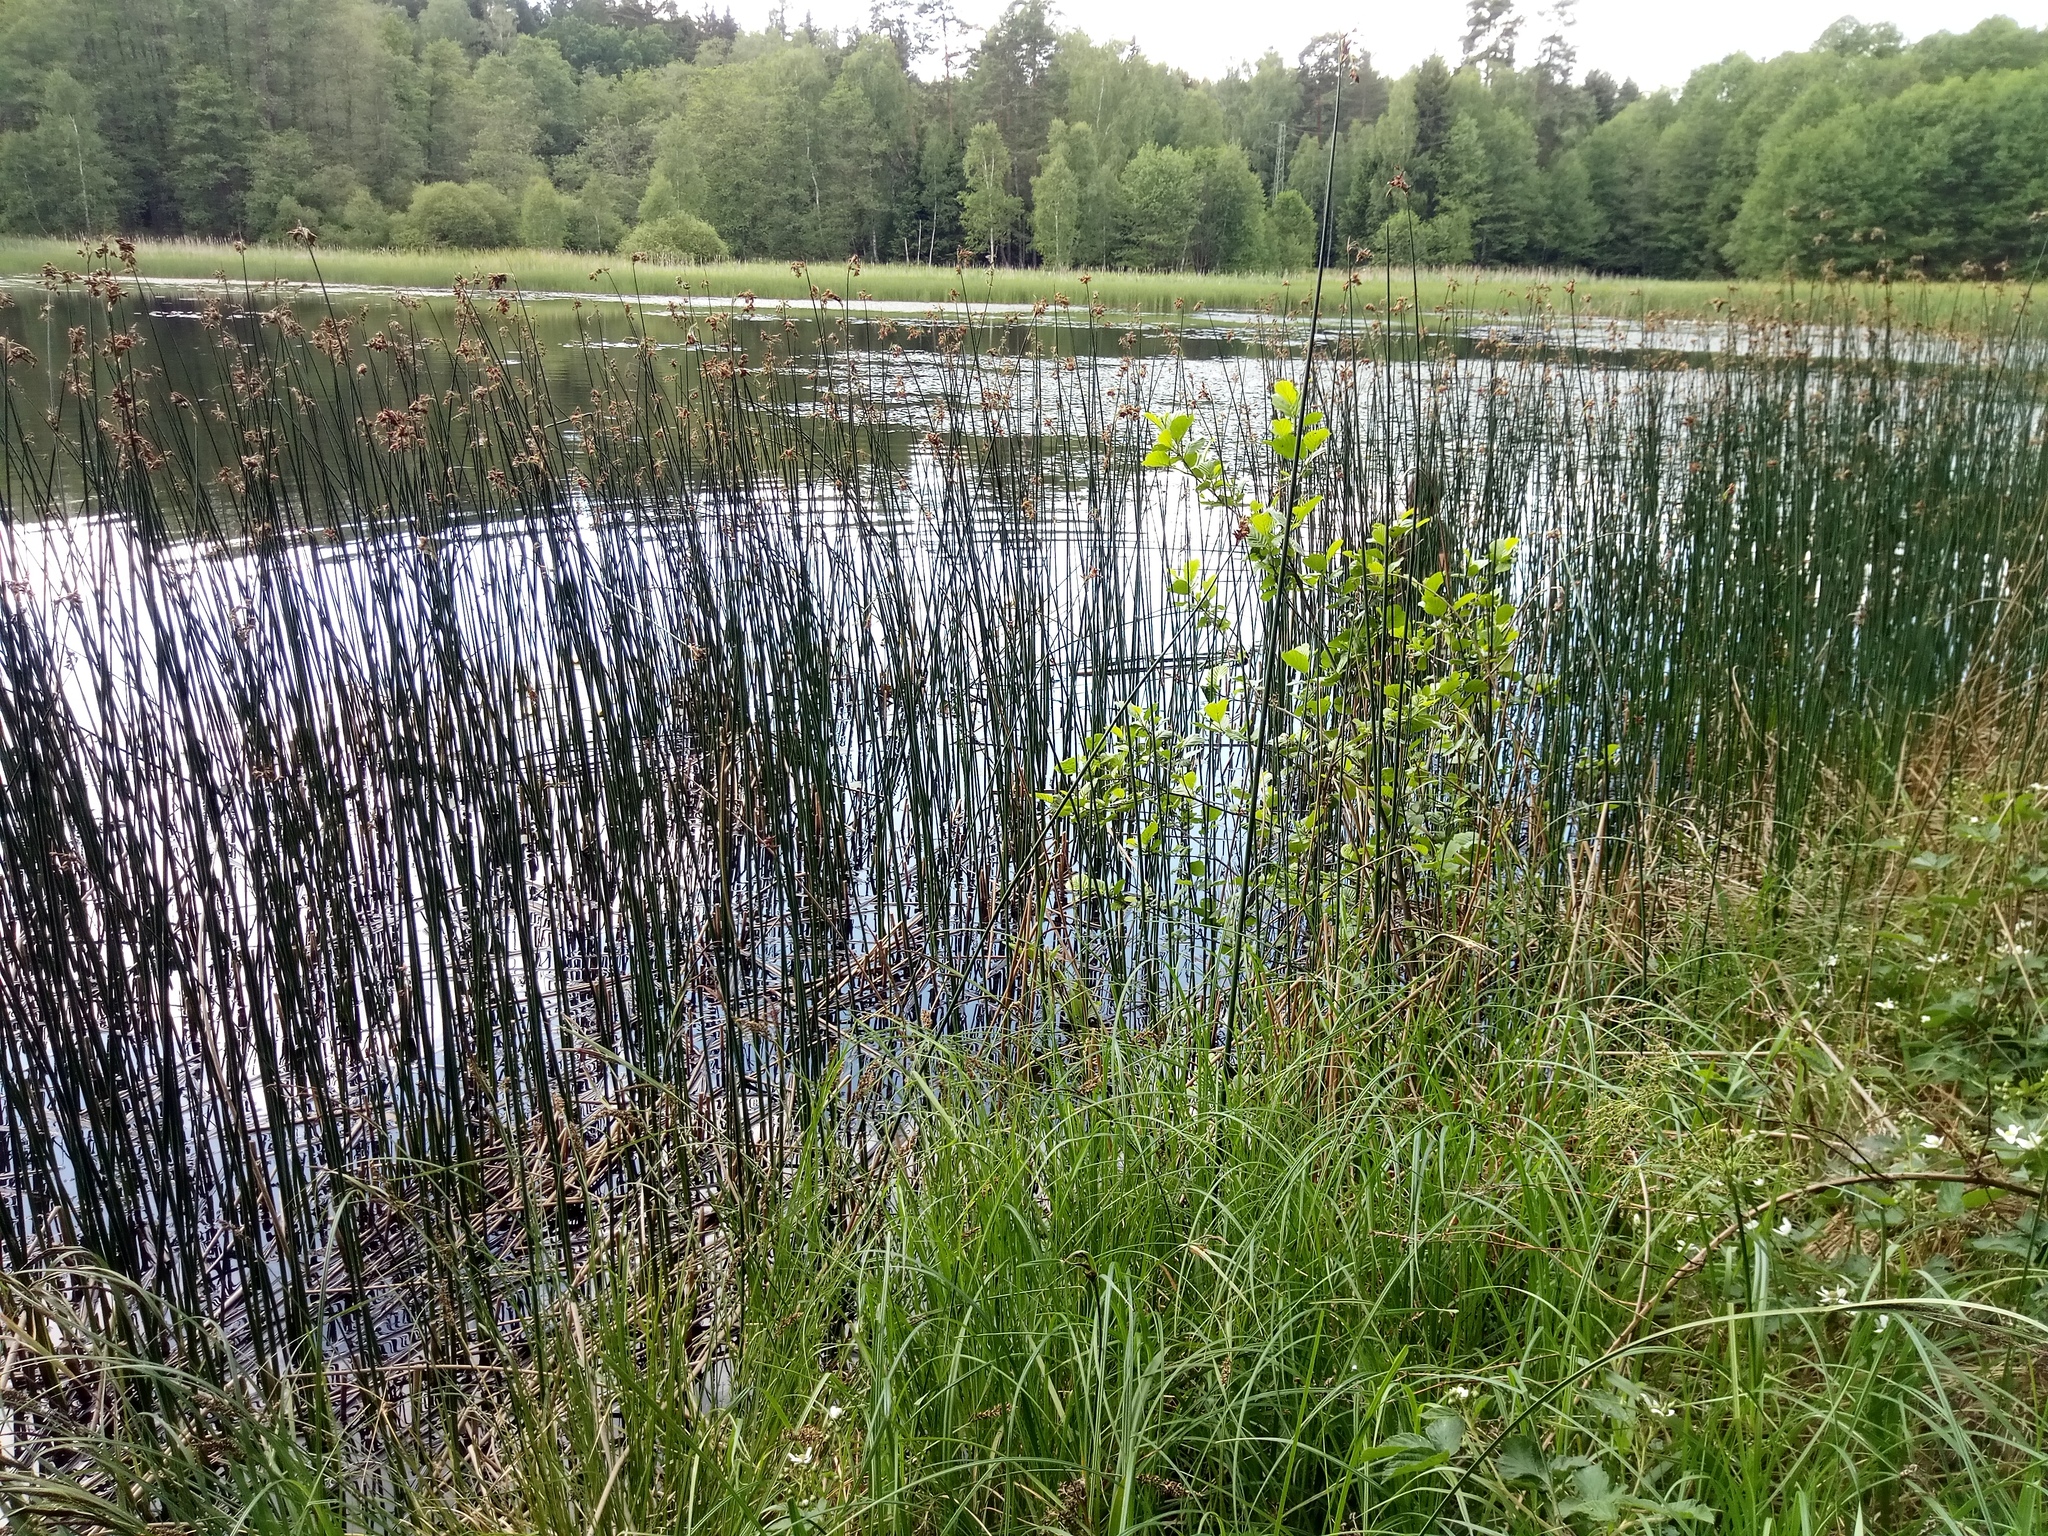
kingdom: Plantae
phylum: Tracheophyta
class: Liliopsida
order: Poales
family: Cyperaceae
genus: Schoenoplectus
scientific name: Schoenoplectus lacustris
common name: Common club-rush
